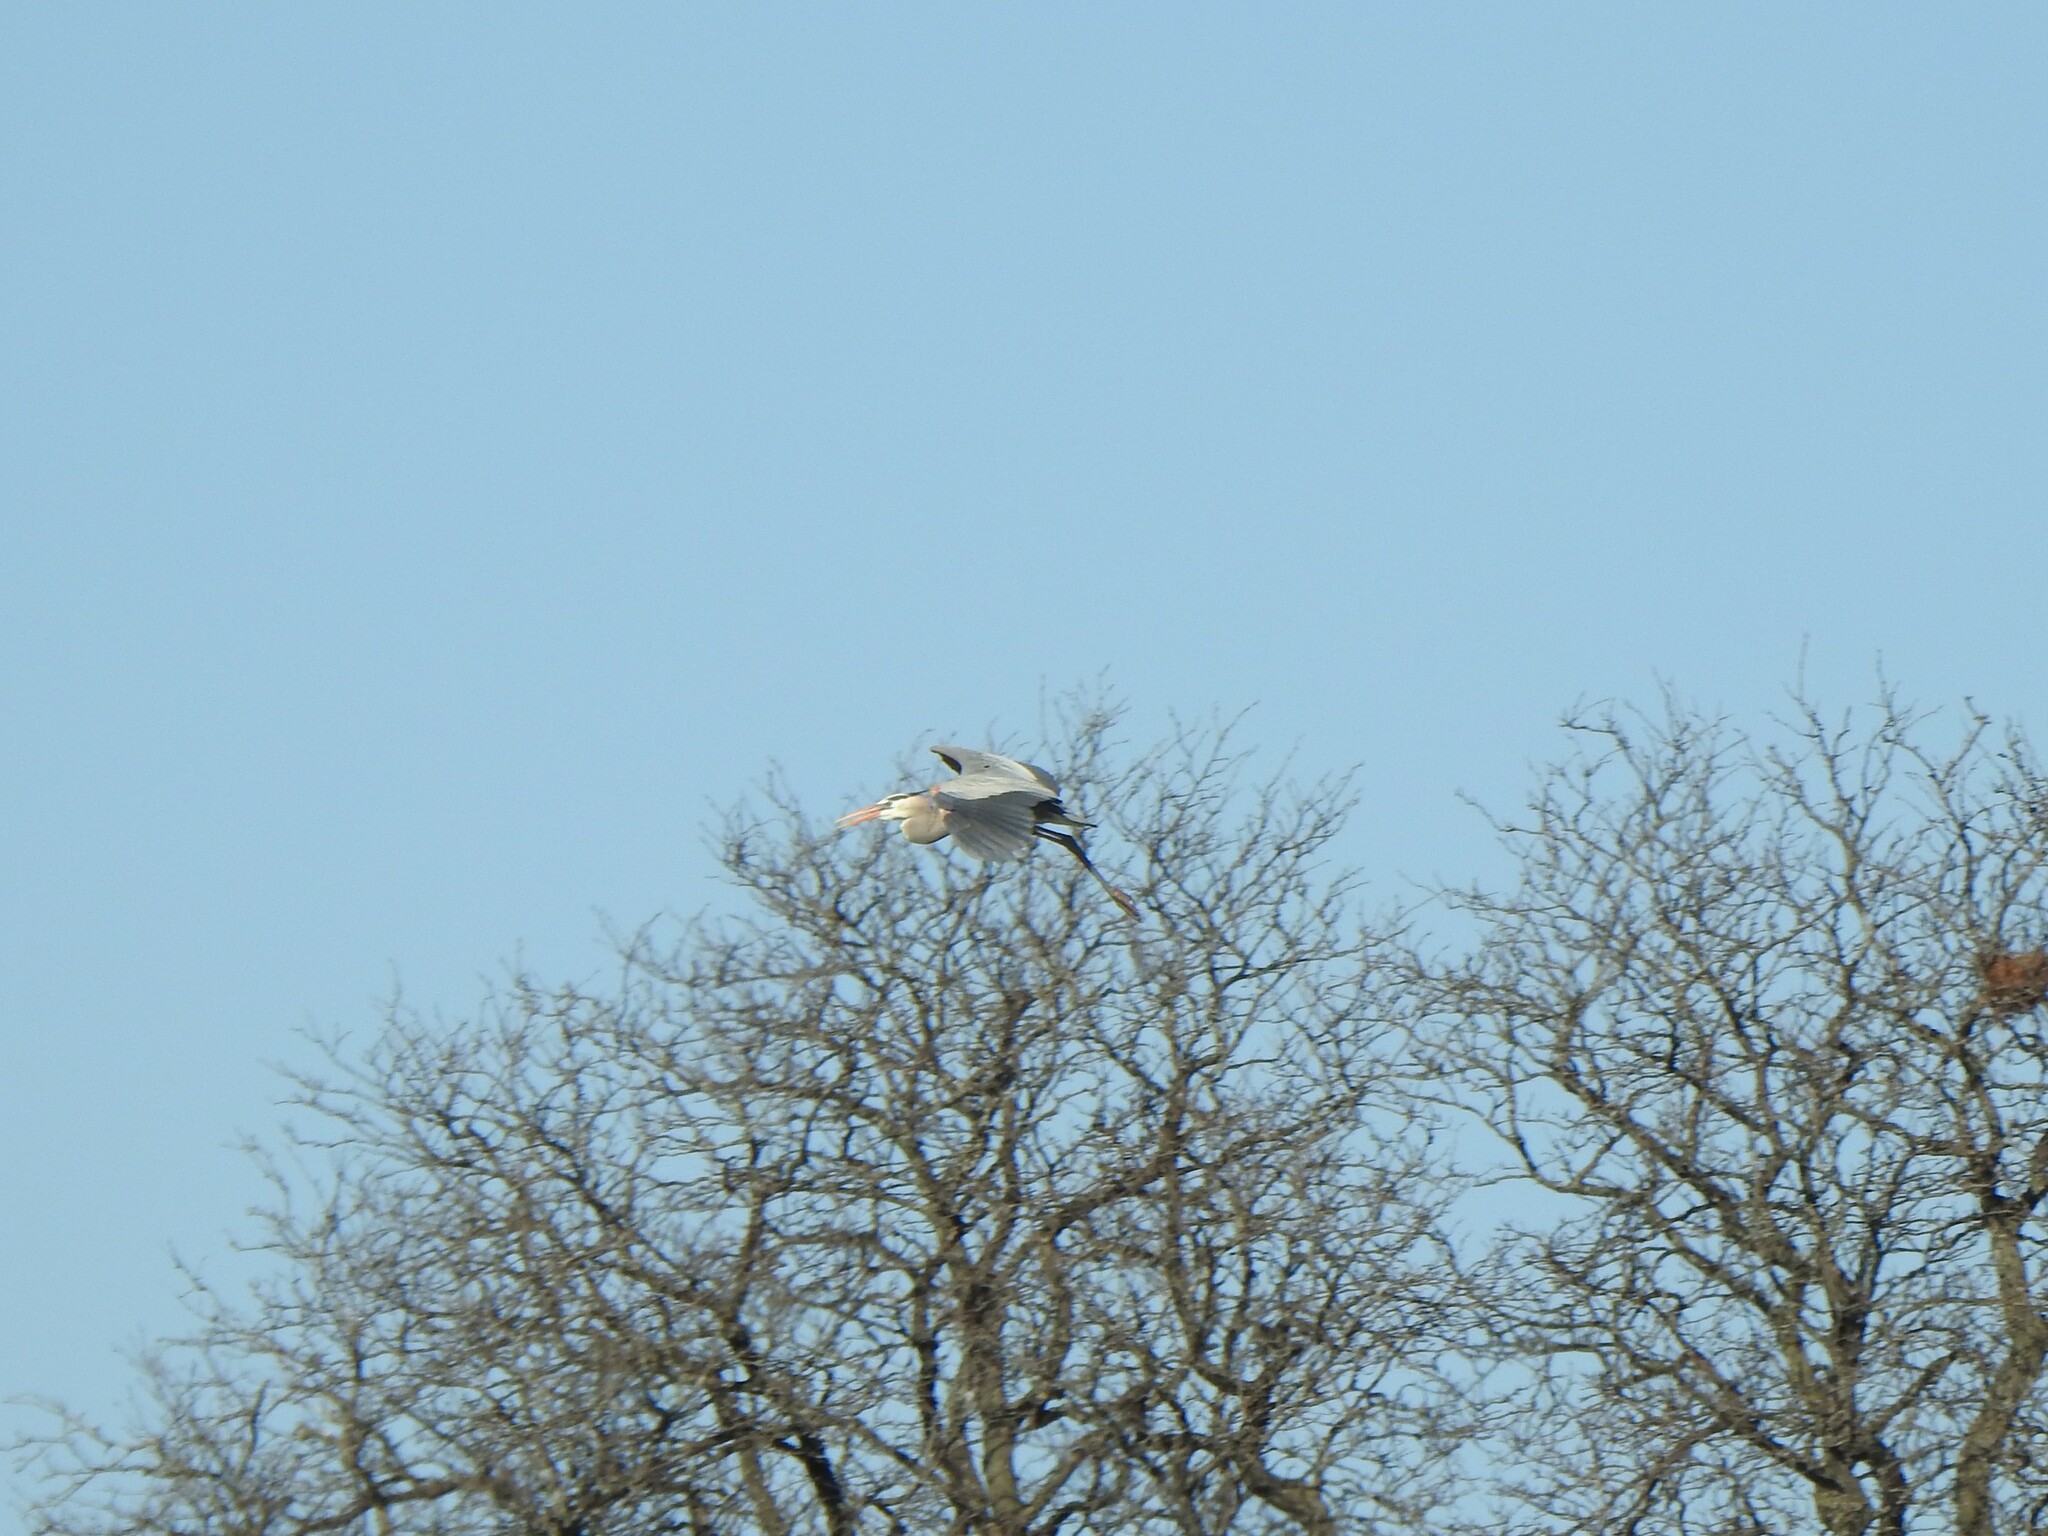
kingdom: Animalia
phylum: Chordata
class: Aves
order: Pelecaniformes
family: Ardeidae
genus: Ardea
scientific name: Ardea herodias
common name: Great blue heron
